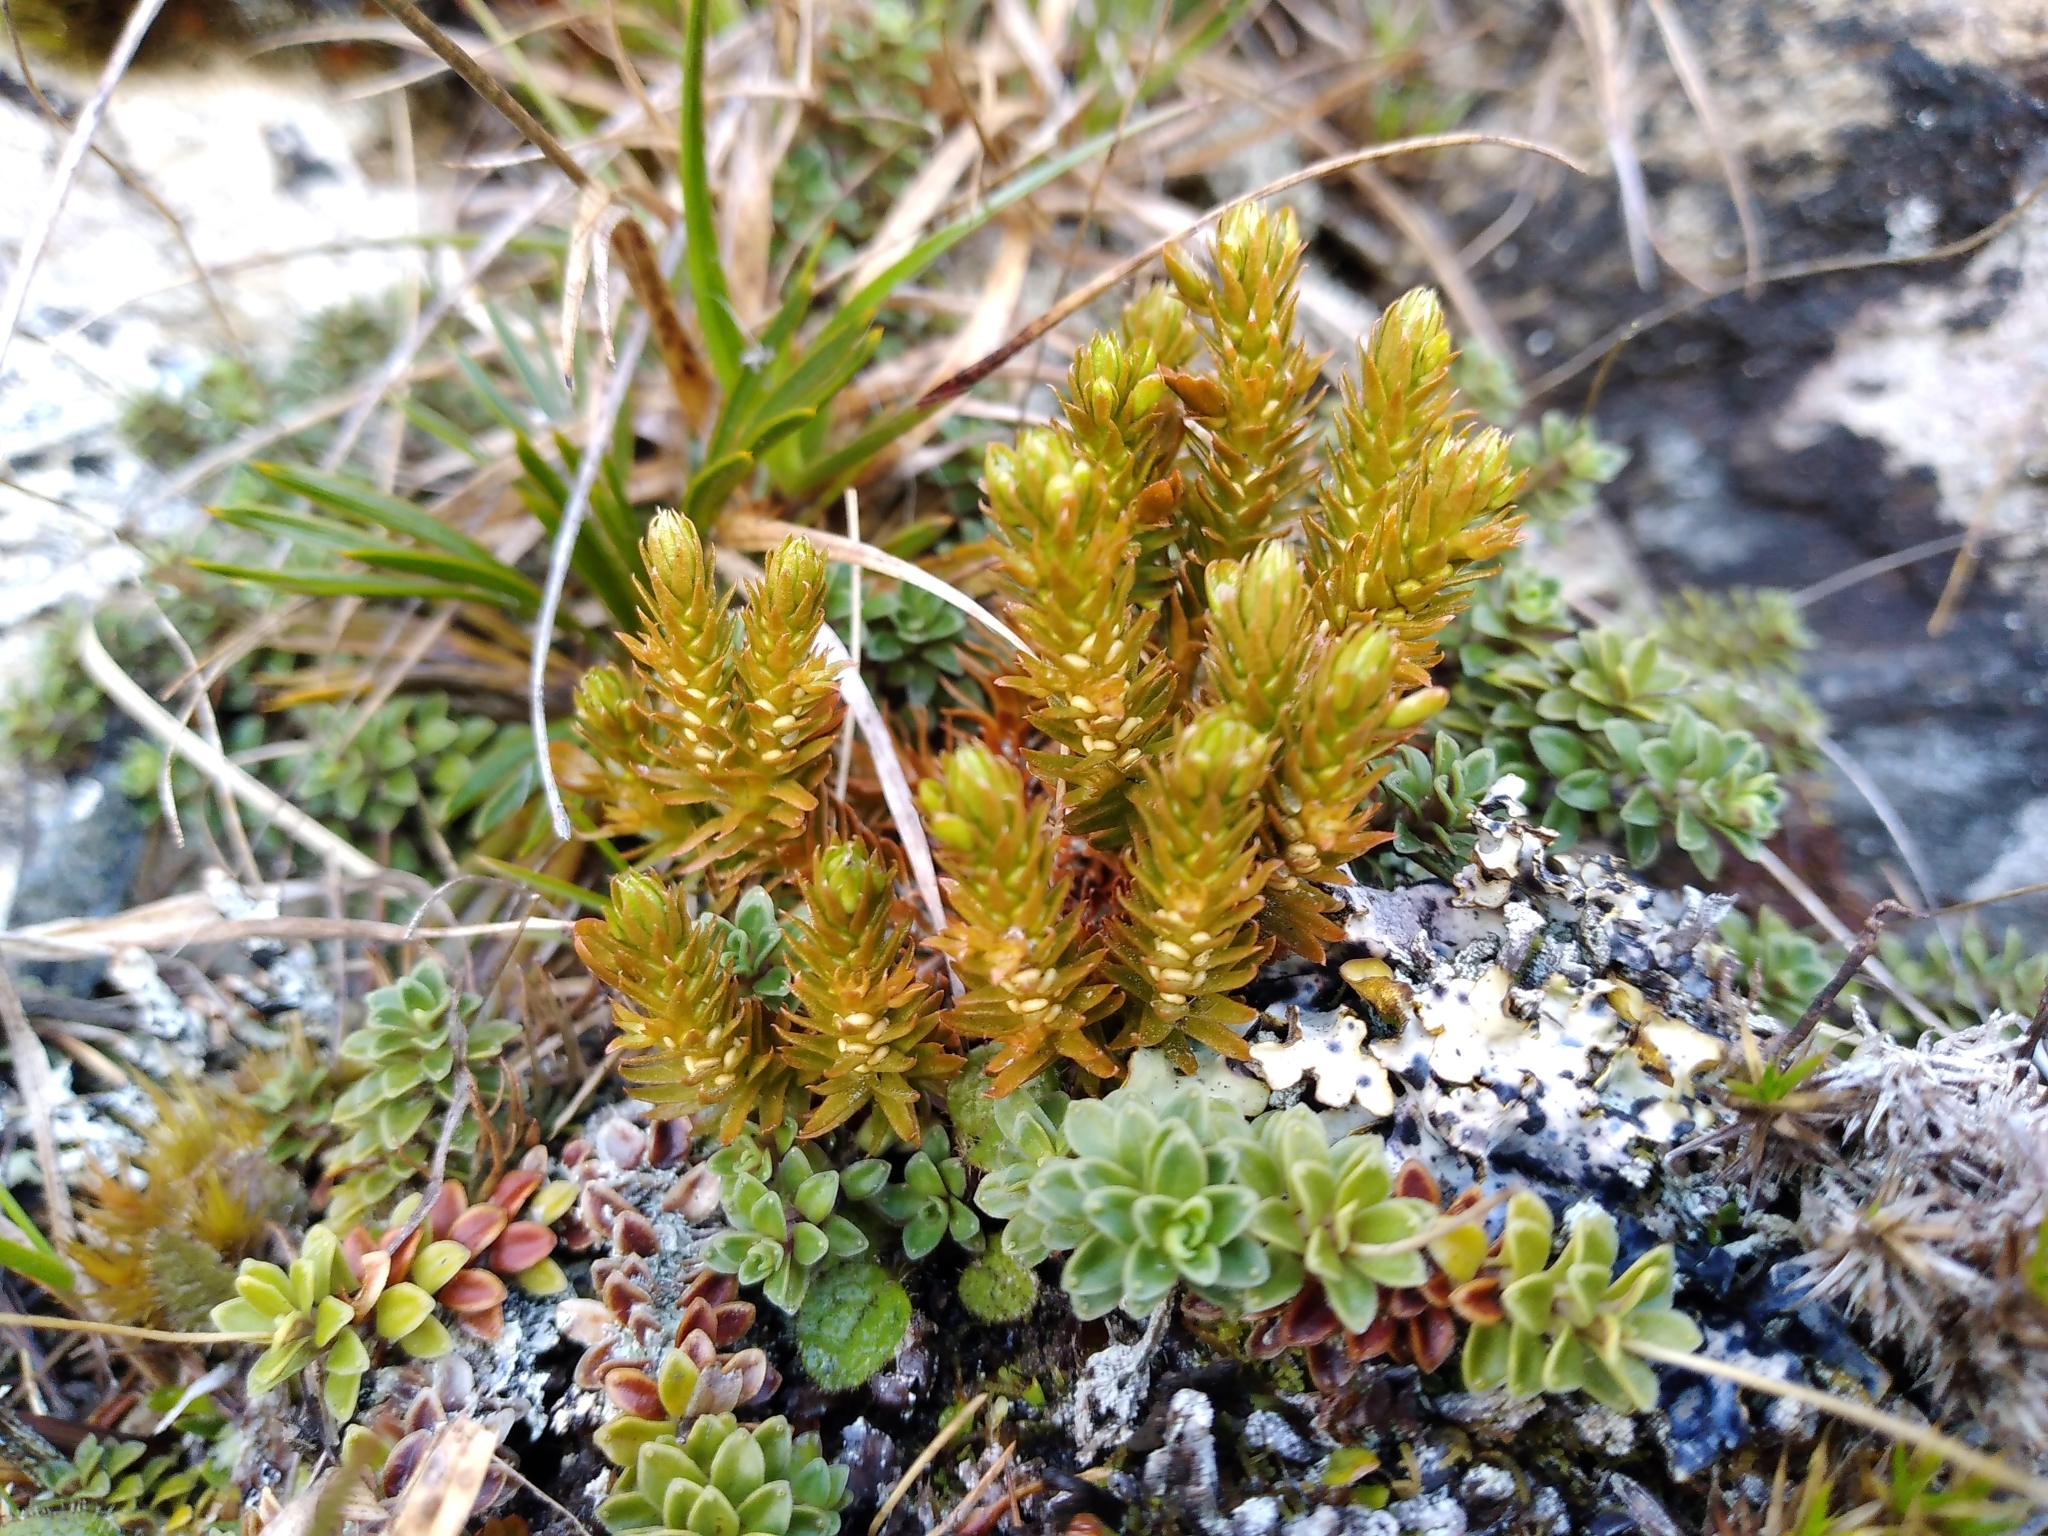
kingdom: Plantae
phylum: Tracheophyta
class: Lycopodiopsida
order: Lycopodiales
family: Lycopodiaceae
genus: Huperzia
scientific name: Huperzia australiana
